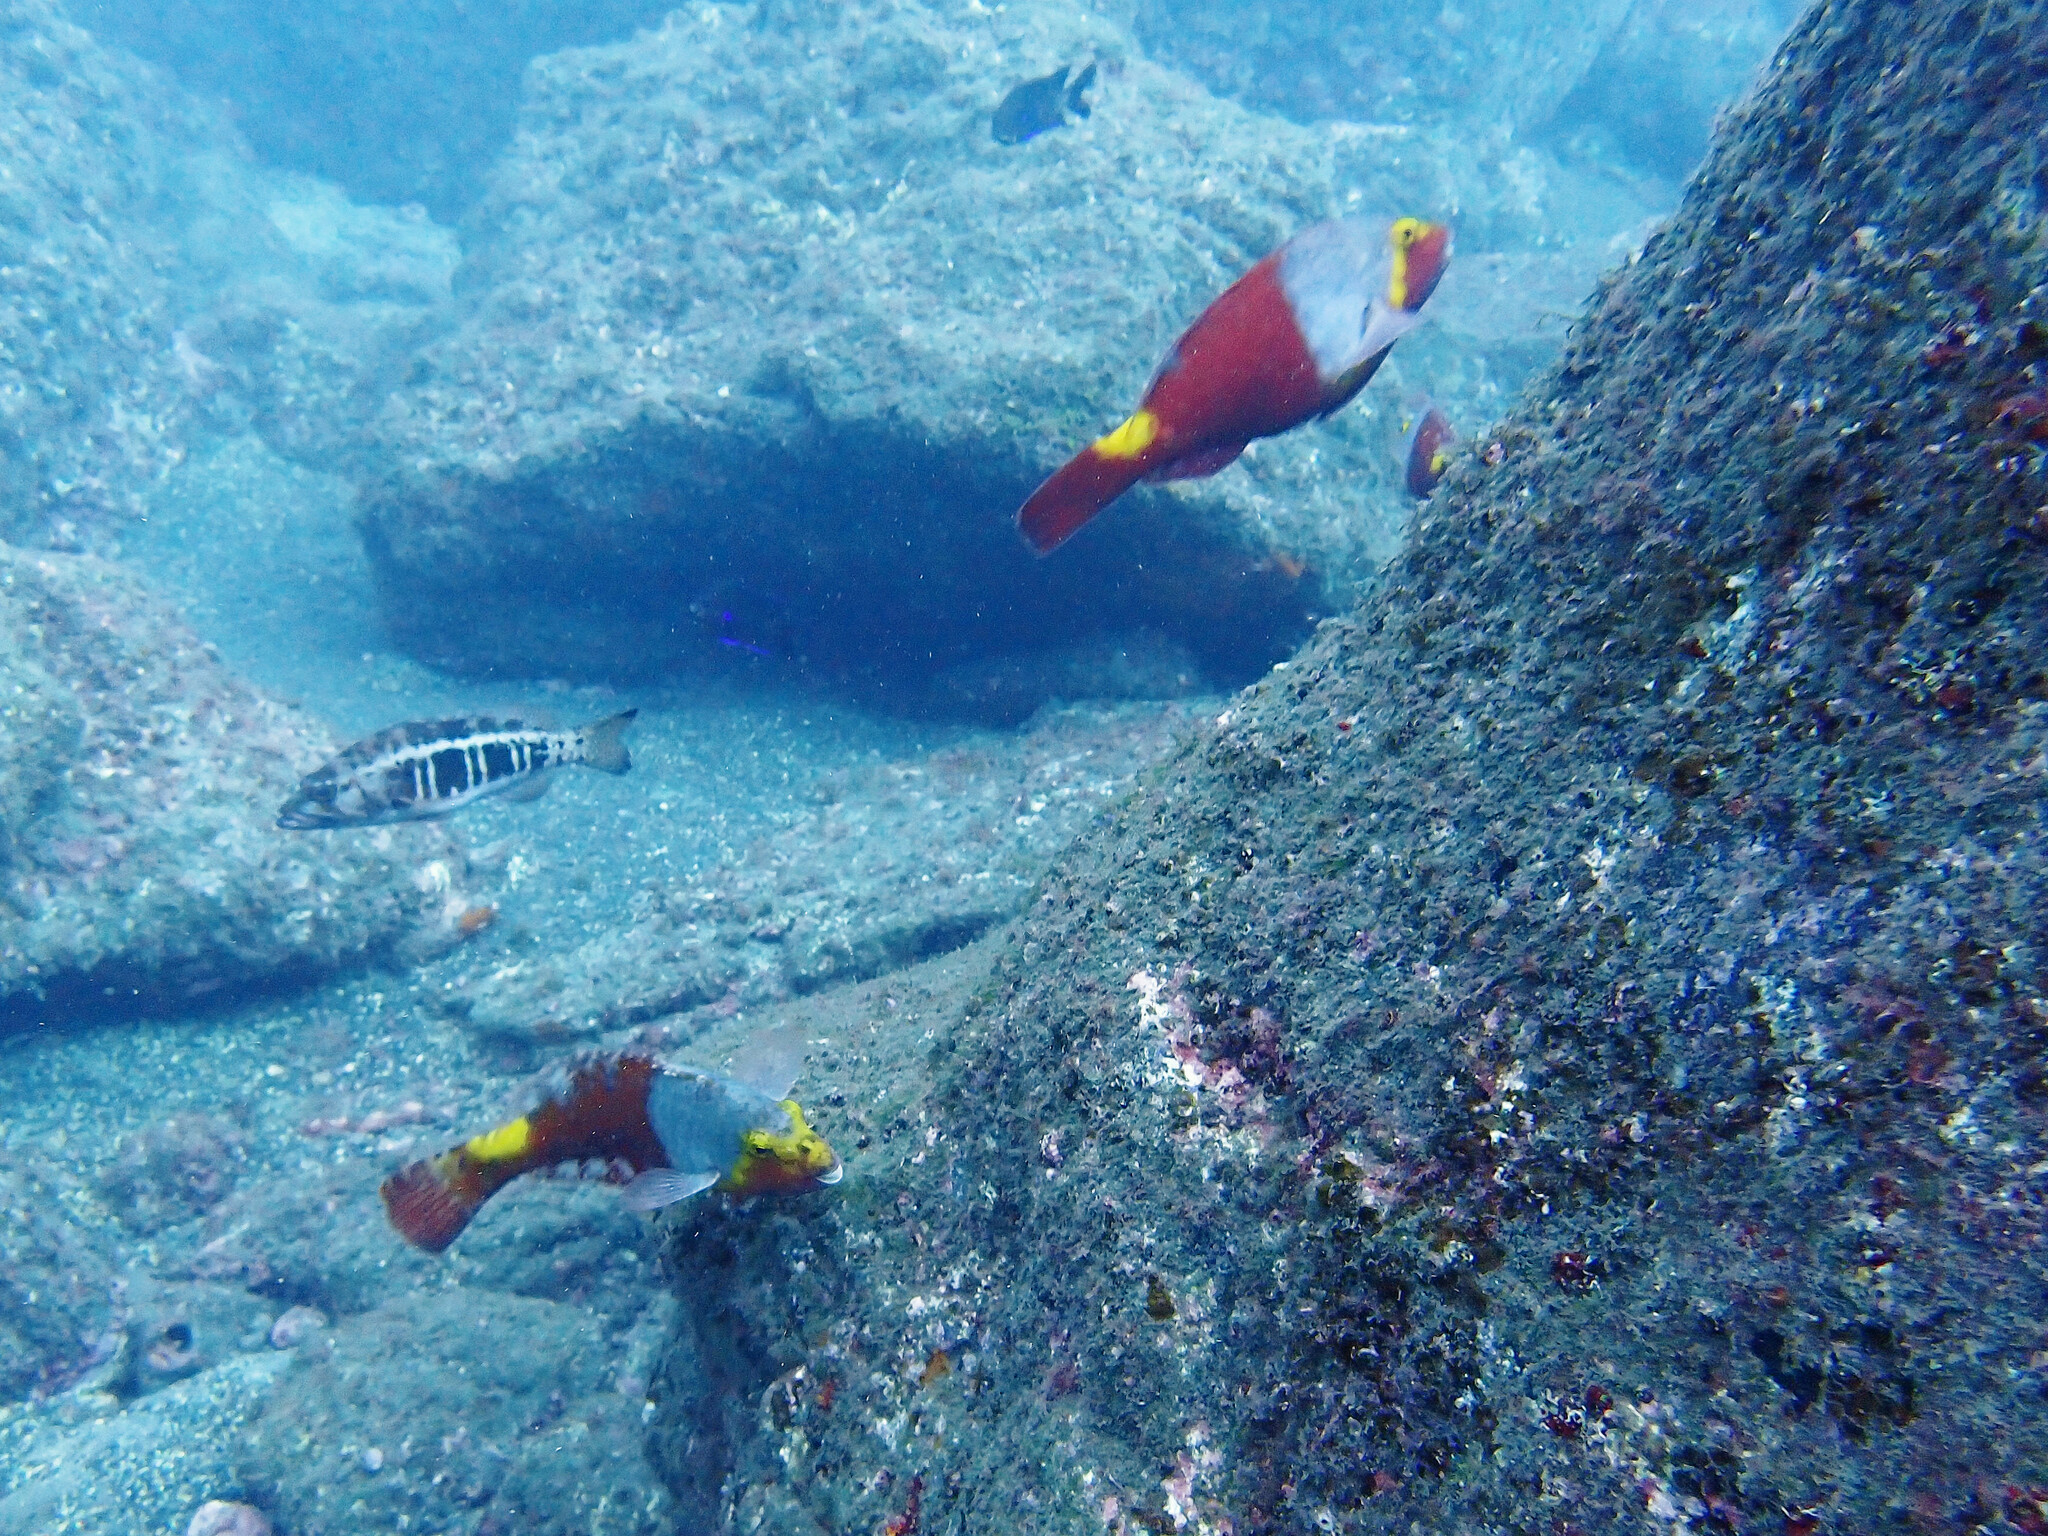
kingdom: Animalia
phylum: Chordata
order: Perciformes
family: Scaridae
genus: Sparisoma
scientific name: Sparisoma cretense
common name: Parrotfish
